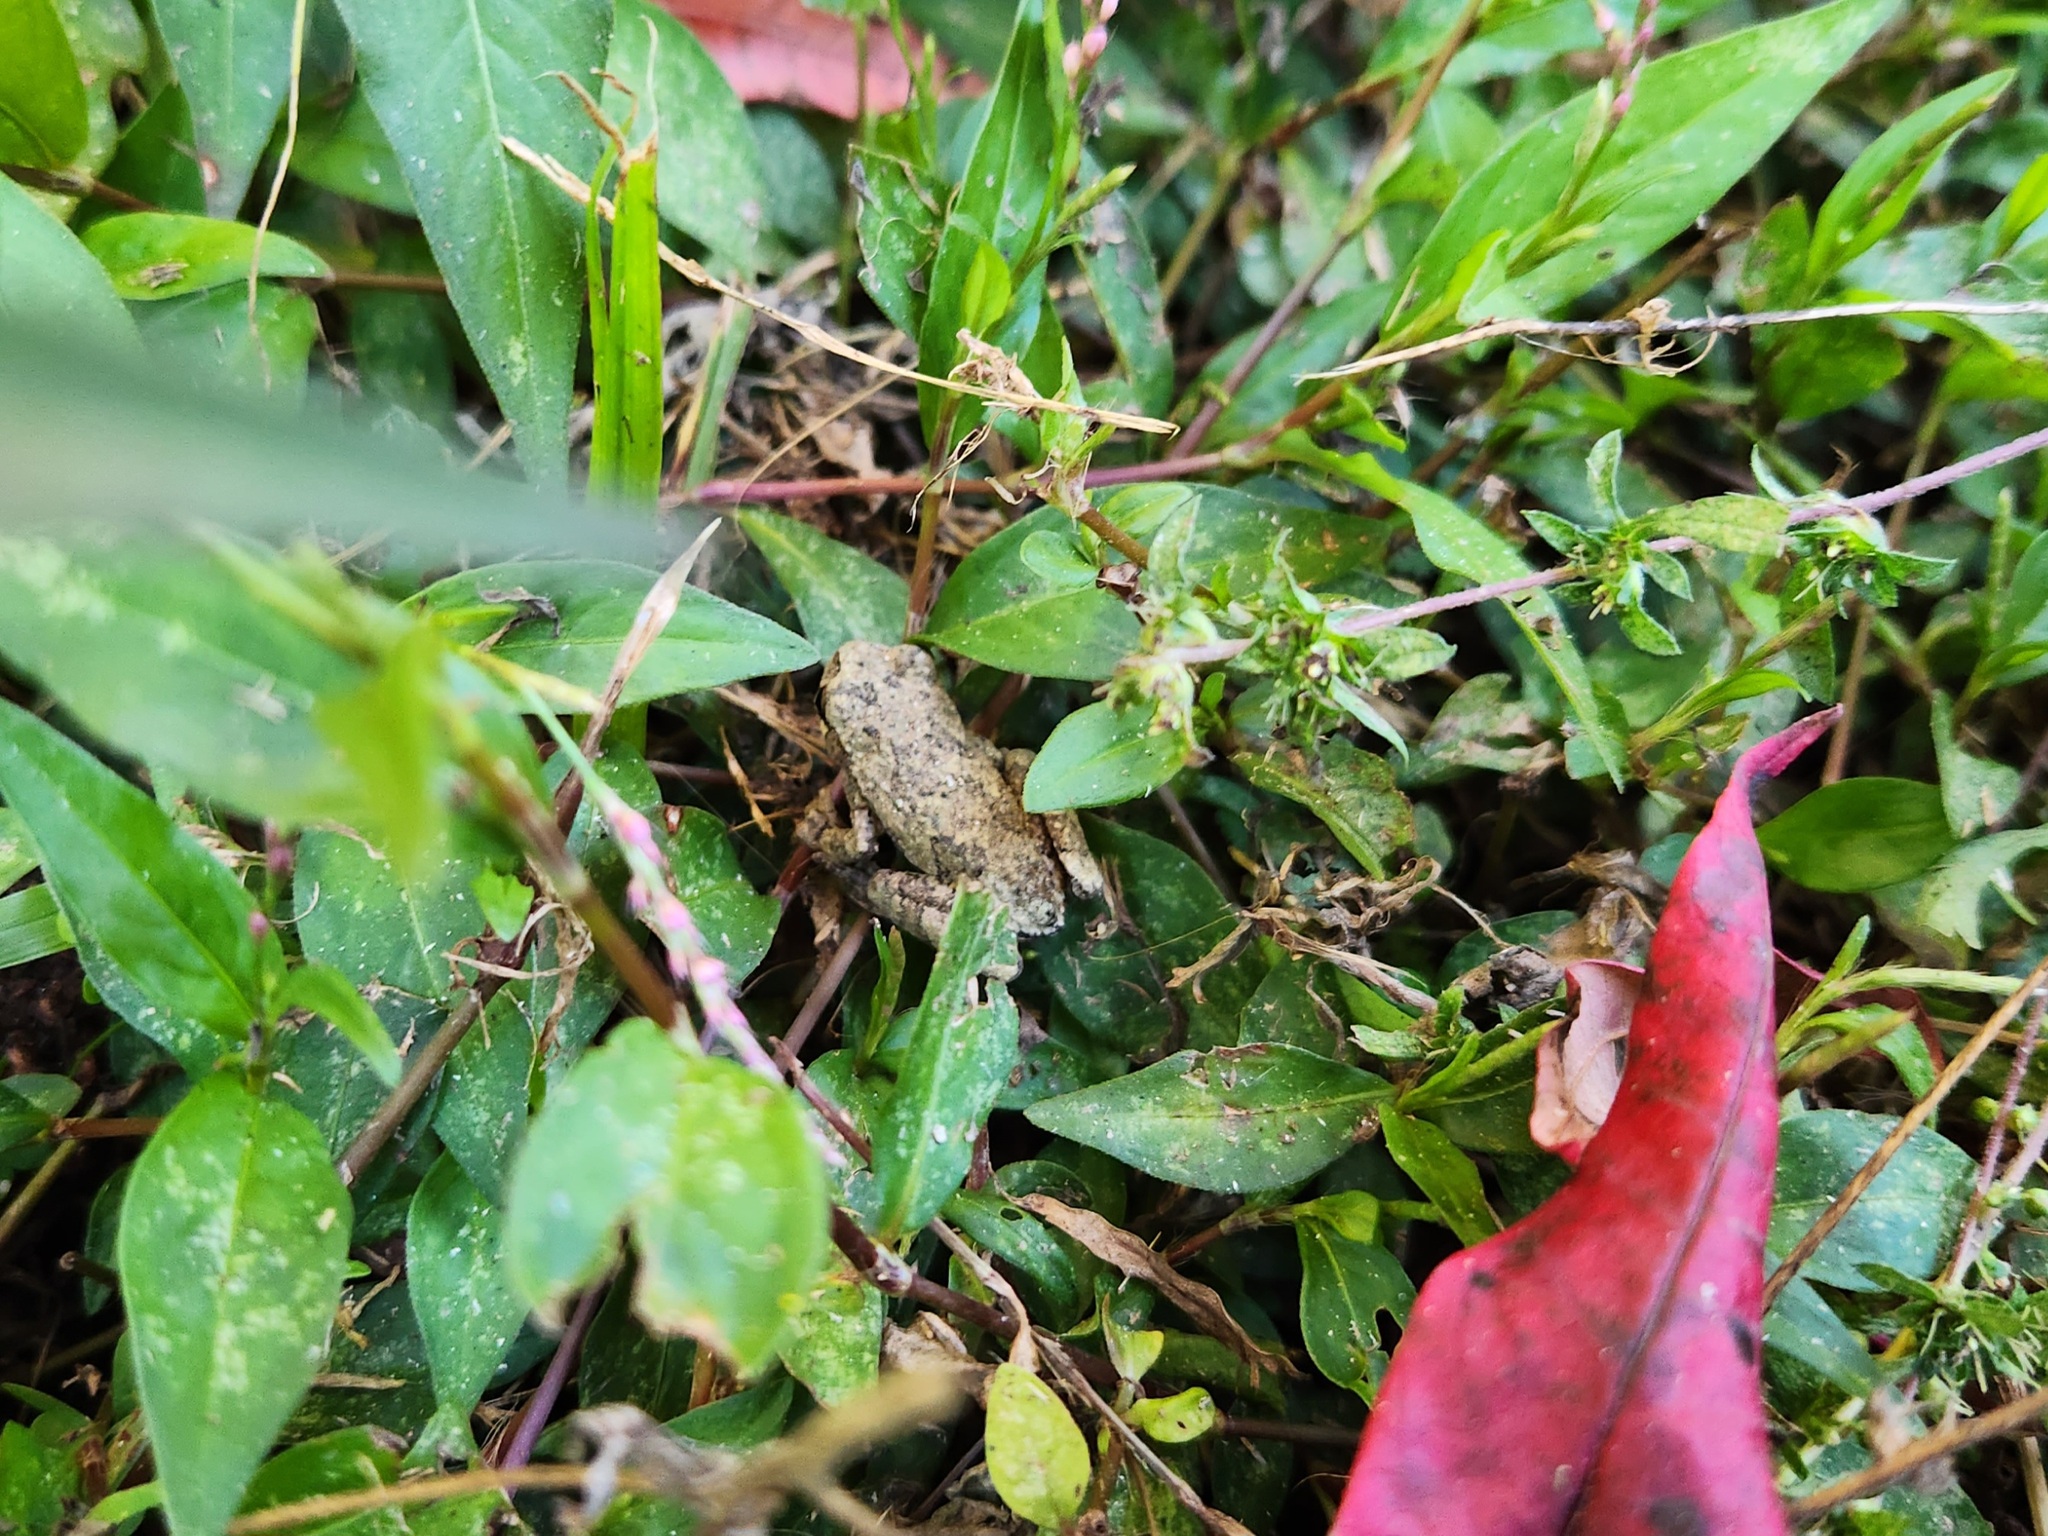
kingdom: Animalia
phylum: Chordata
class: Amphibia
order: Anura
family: Hylidae
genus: Dryophytes
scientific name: Dryophytes chrysoscelis
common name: Cope's gray treefrog
